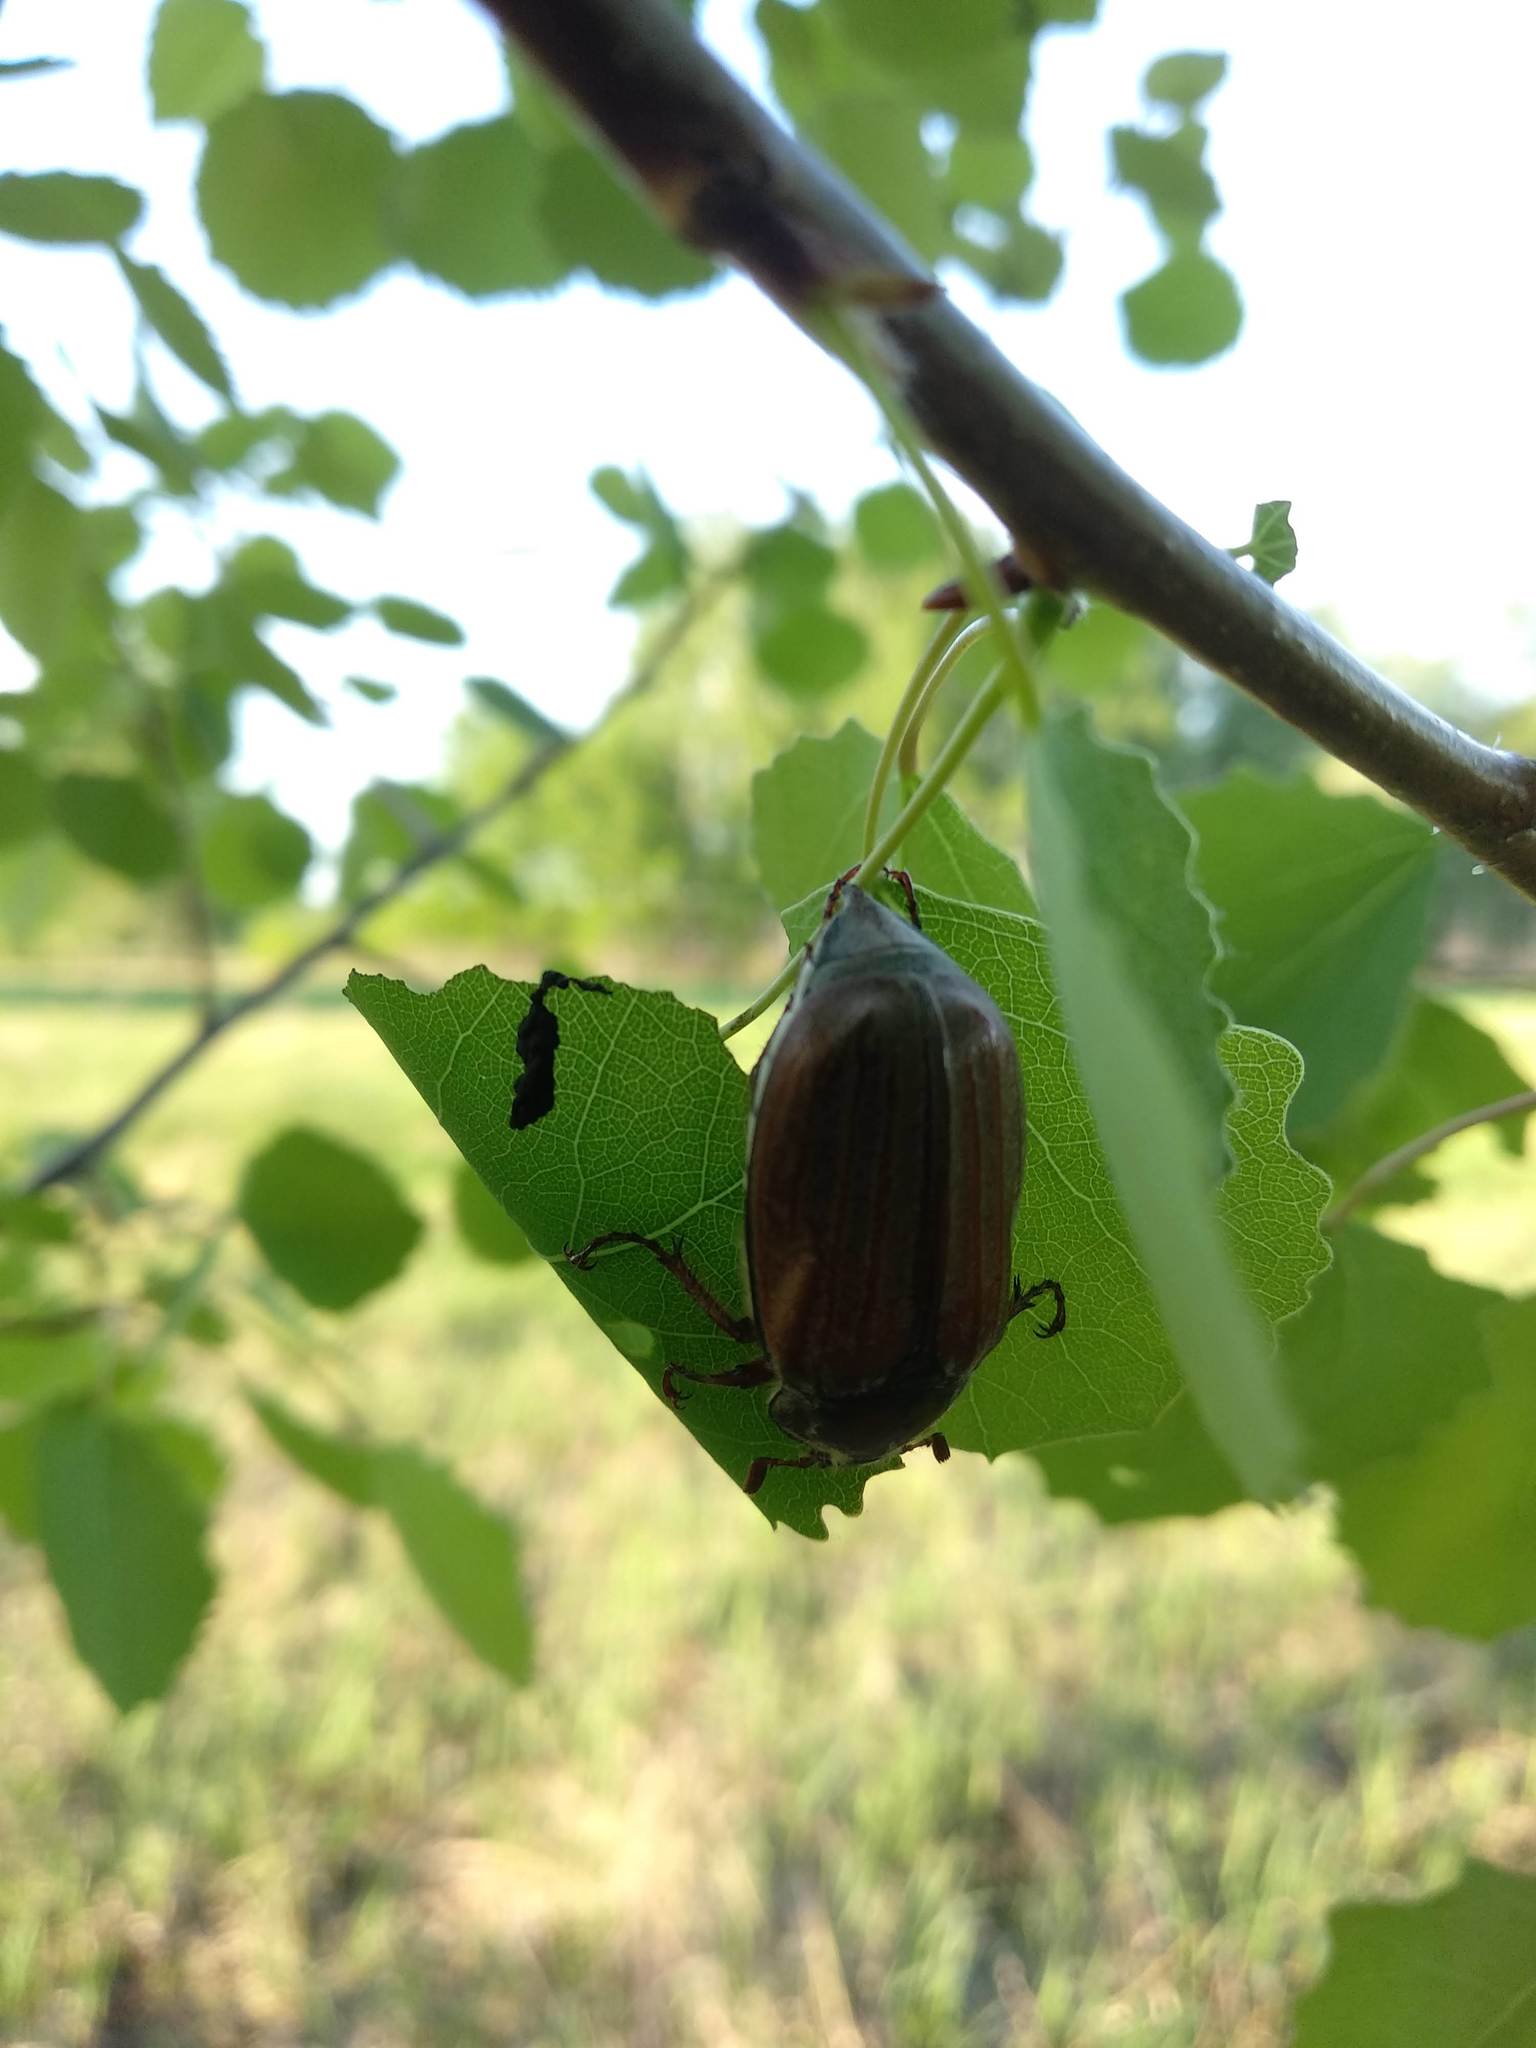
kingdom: Animalia
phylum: Arthropoda
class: Insecta
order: Coleoptera
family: Scarabaeidae
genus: Melolontha
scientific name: Melolontha hippocastani
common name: Chestnut cockchafer
